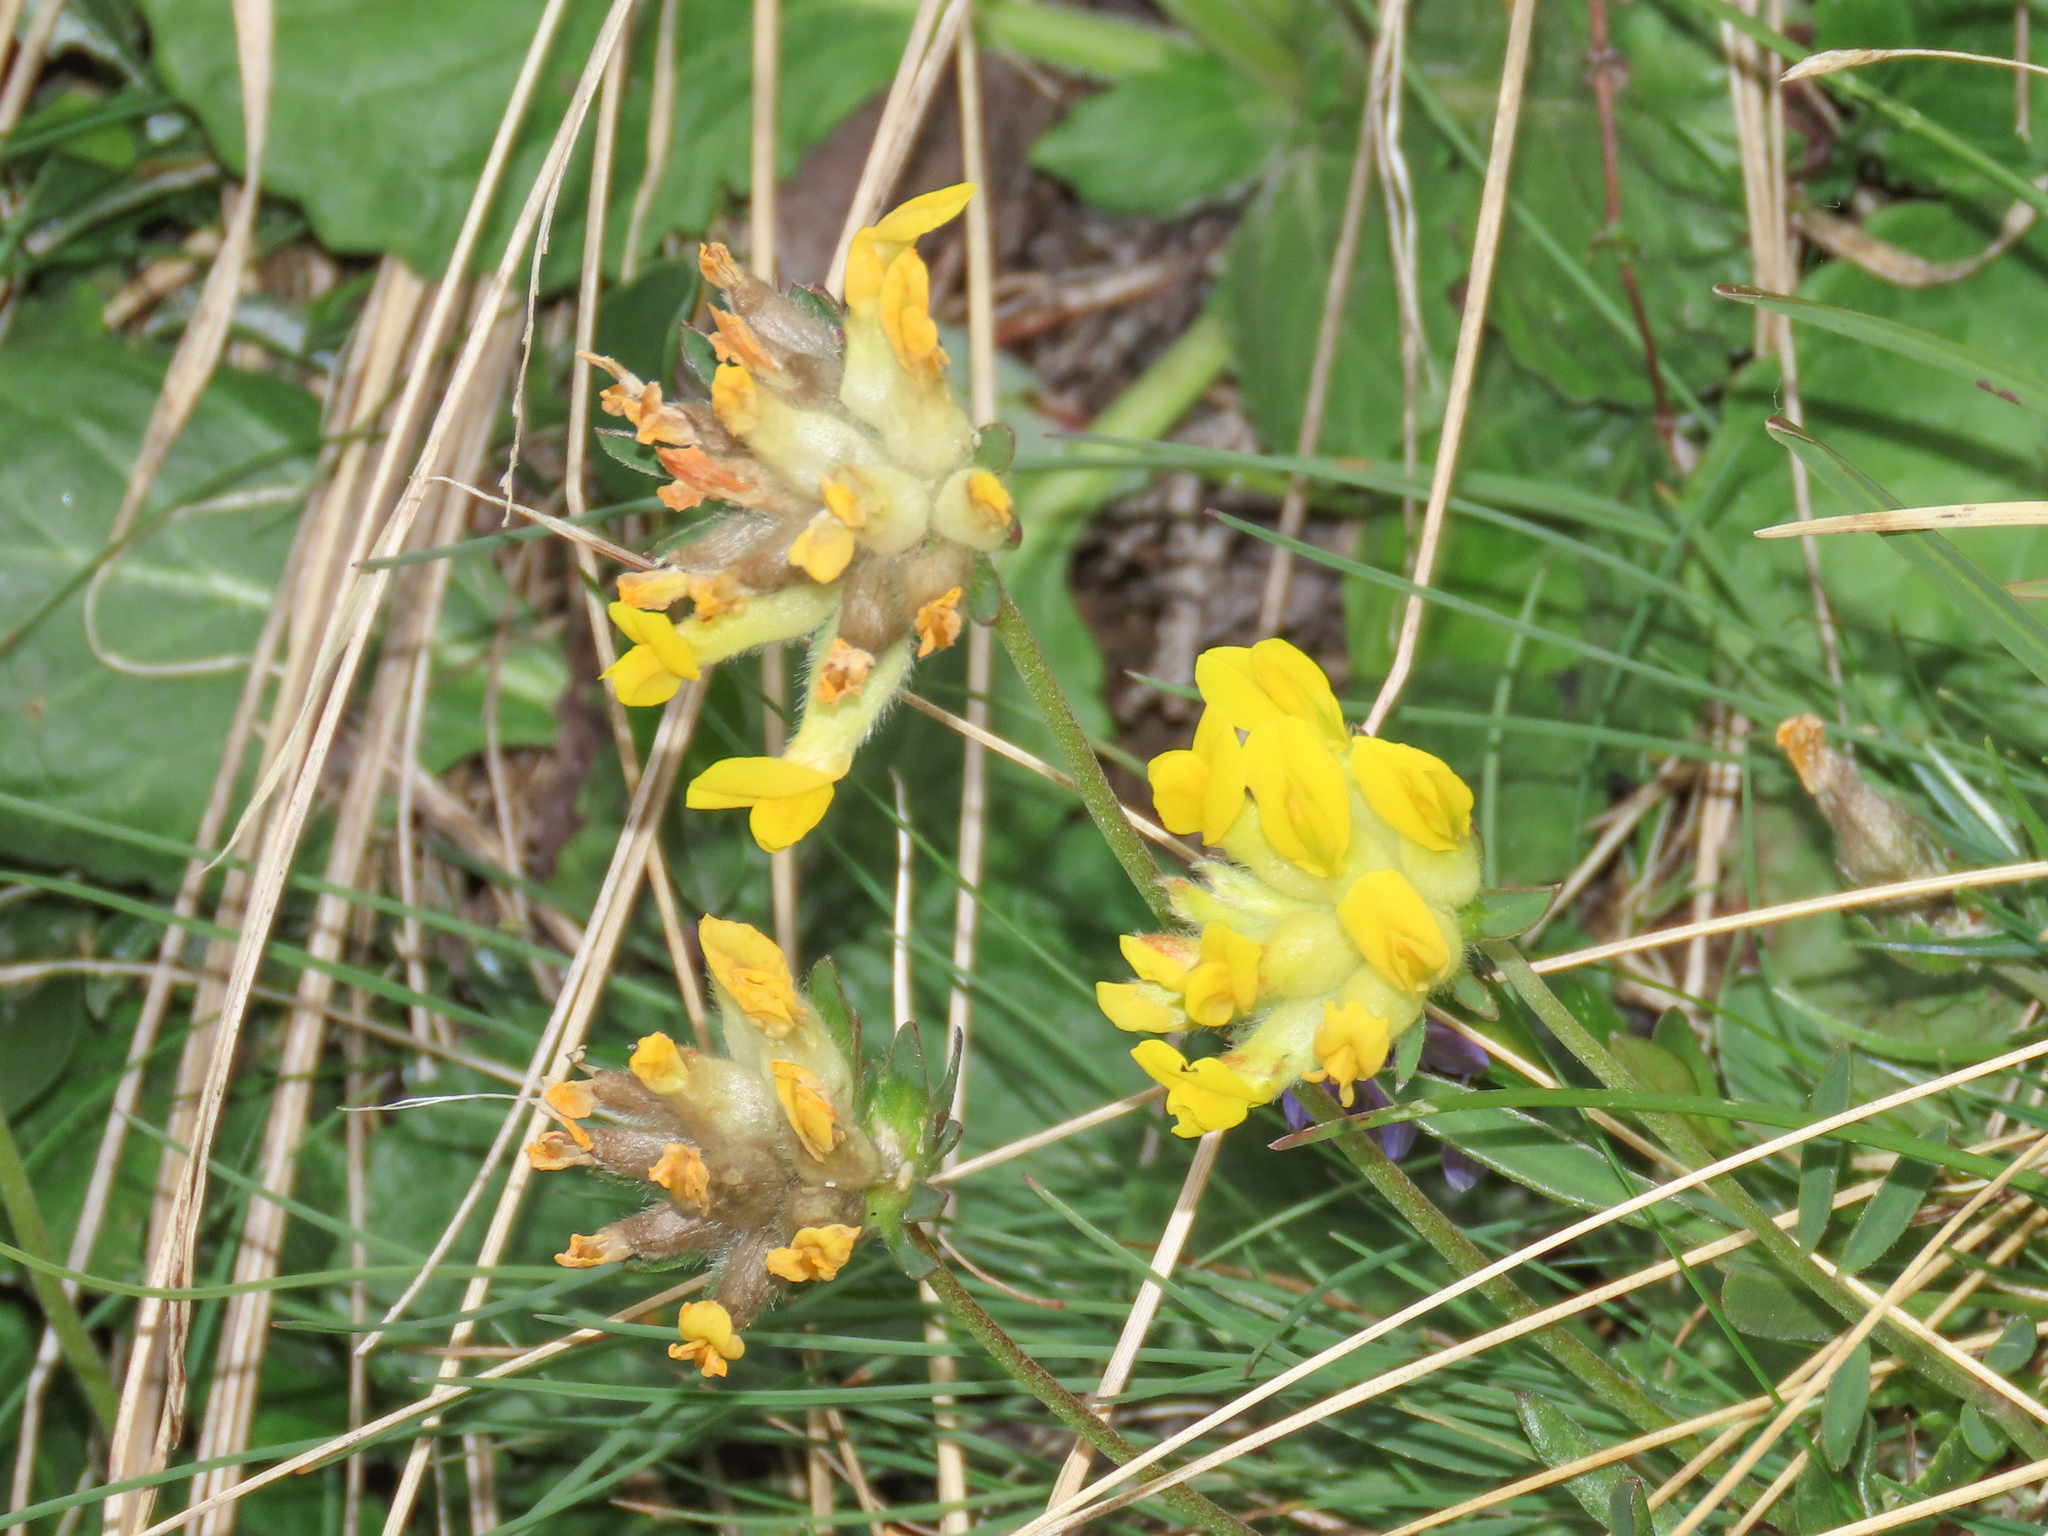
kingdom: Plantae
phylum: Tracheophyta
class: Magnoliopsida
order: Fabales
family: Fabaceae
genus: Anthyllis
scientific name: Anthyllis vulneraria
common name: Kidney vetch
